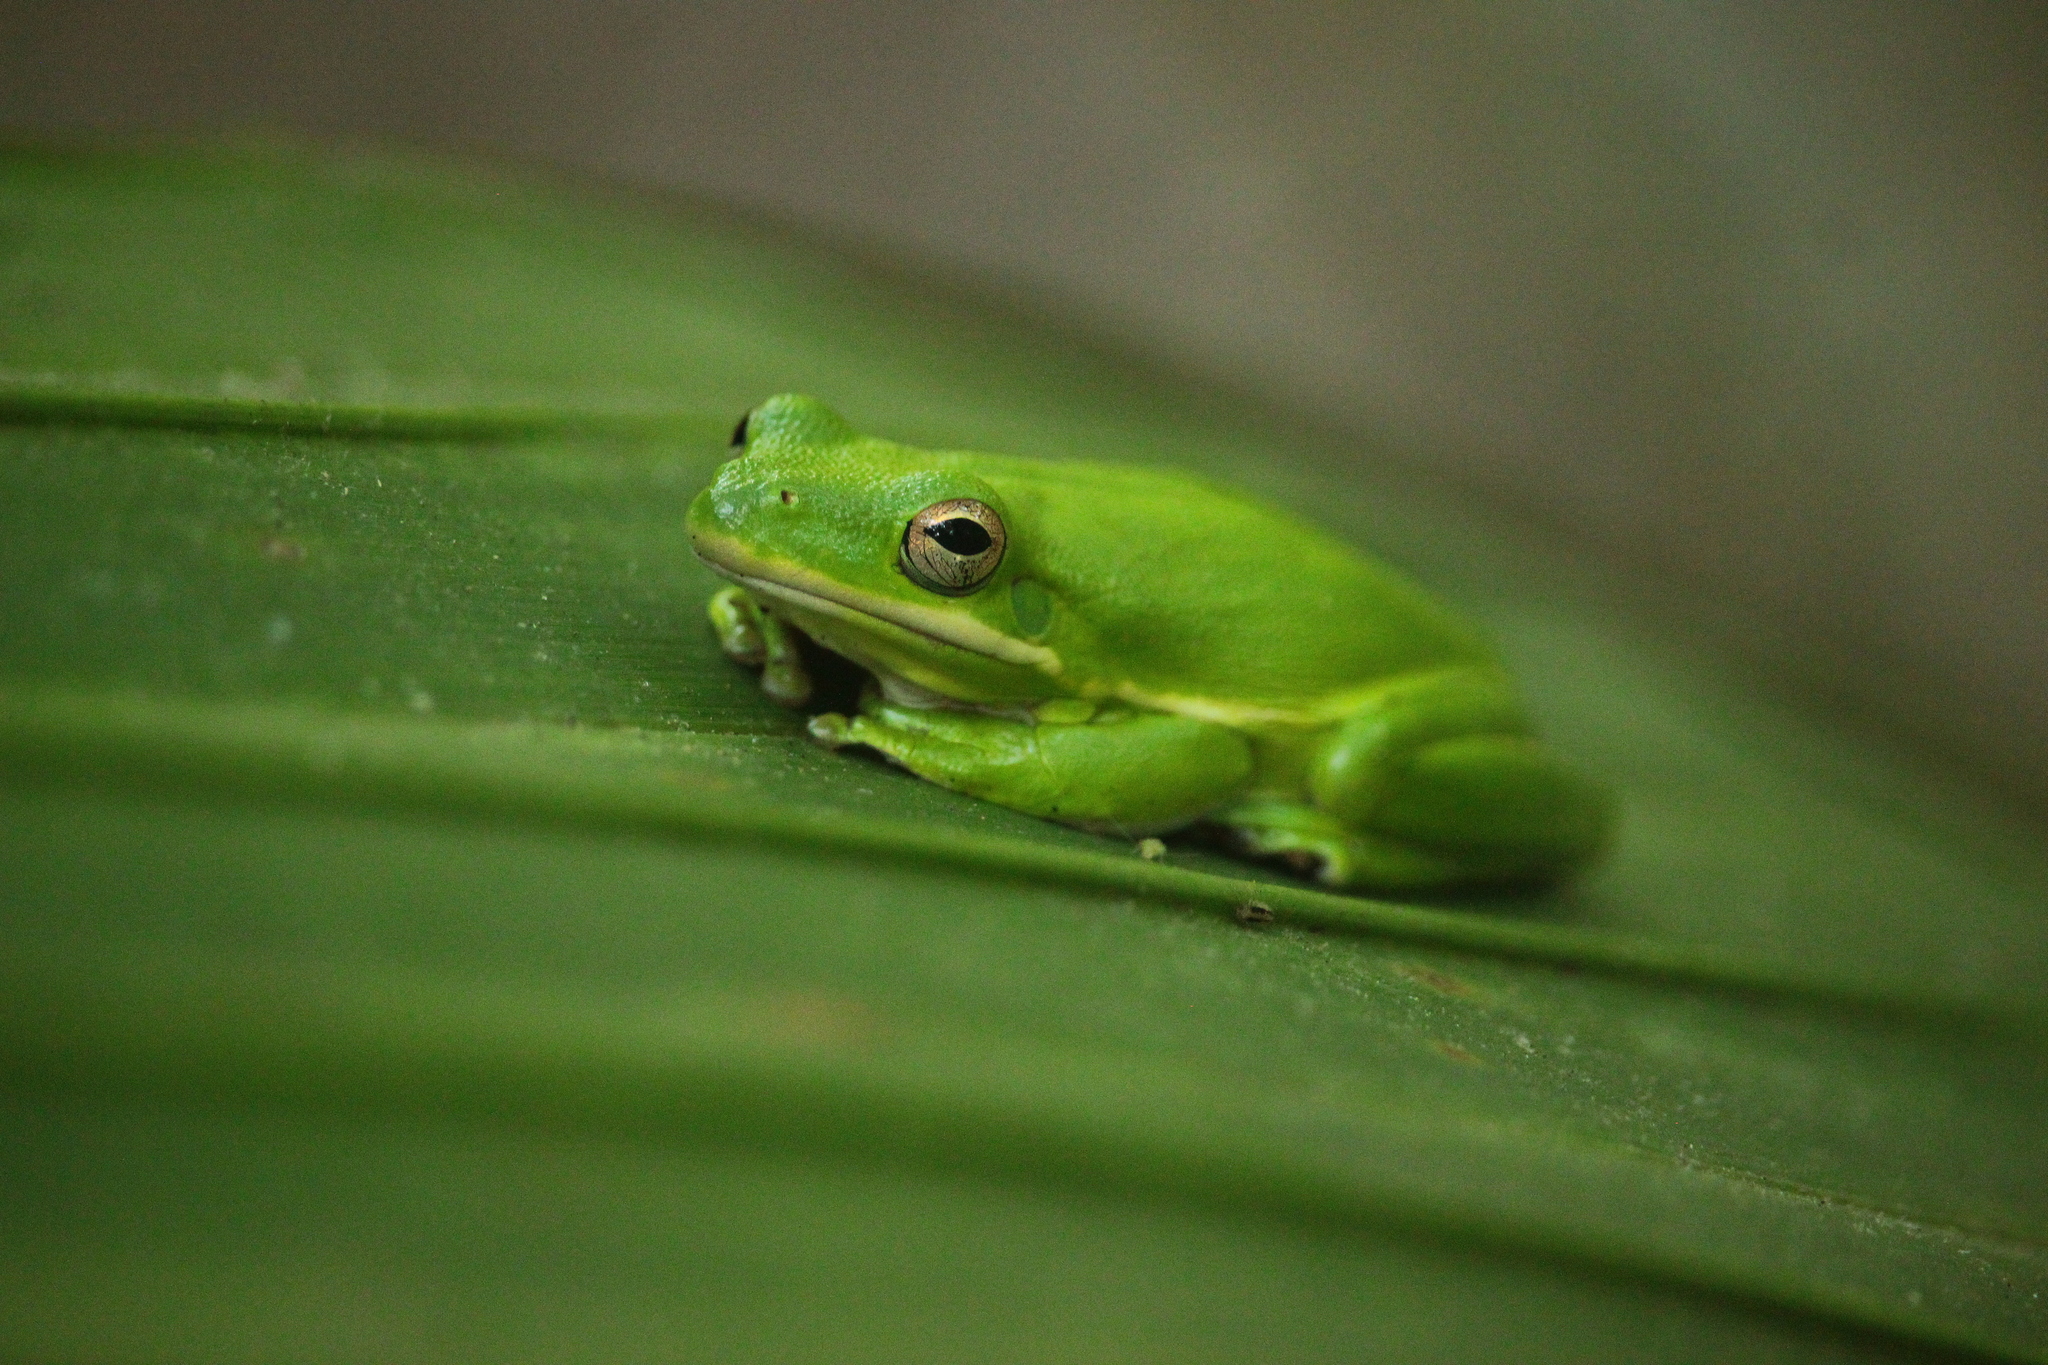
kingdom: Animalia
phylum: Chordata
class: Amphibia
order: Anura
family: Hylidae
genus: Dryophytes
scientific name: Dryophytes cinereus
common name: Green treefrog
